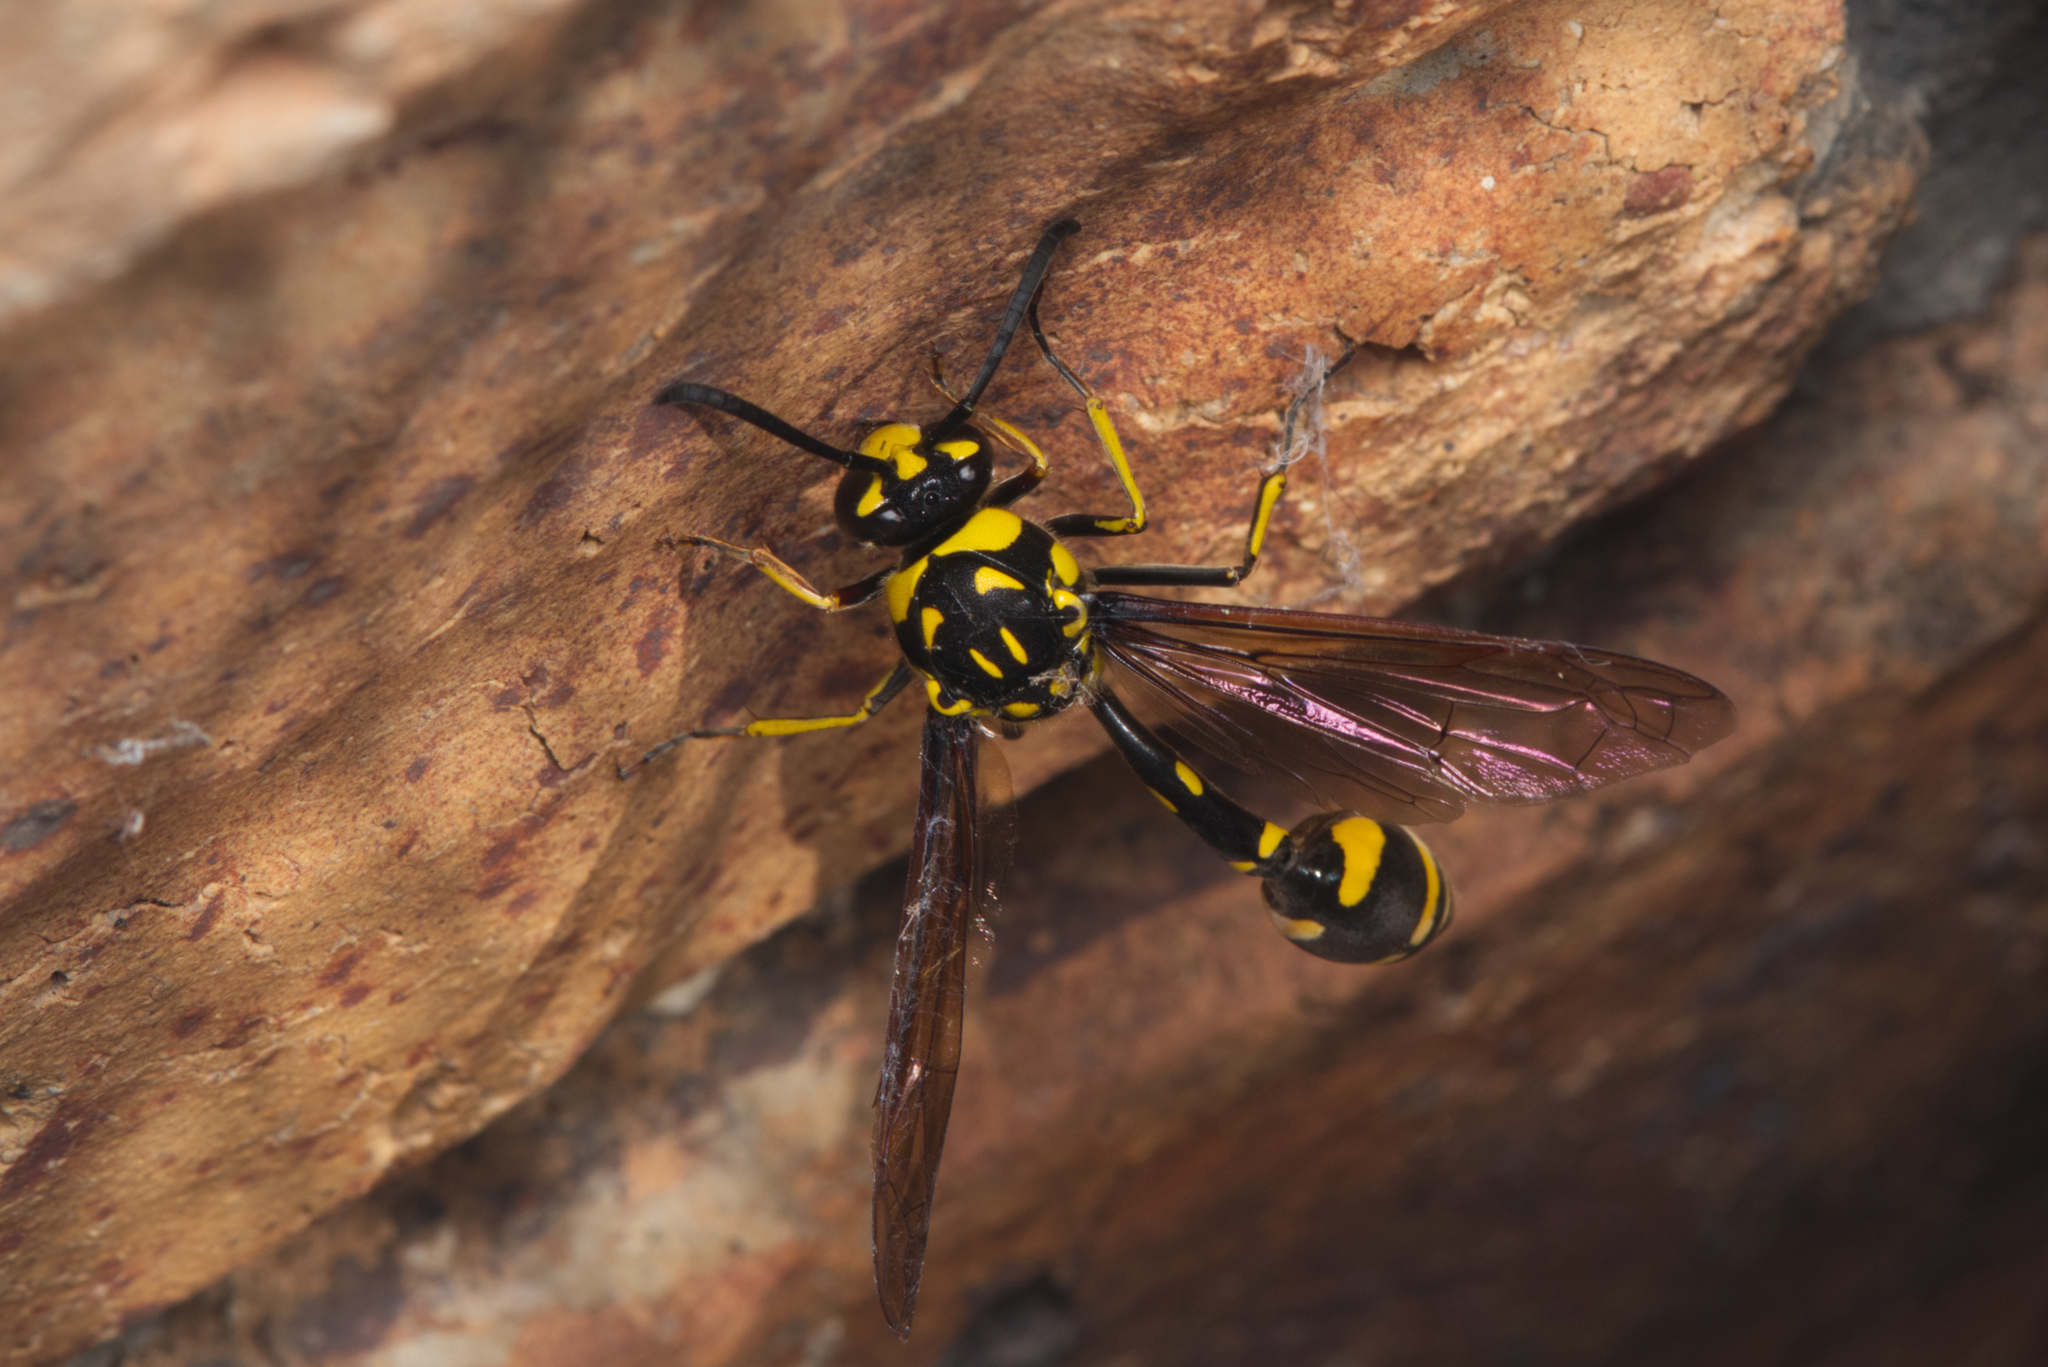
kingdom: Animalia
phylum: Arthropoda
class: Insecta
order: Hymenoptera
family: Eumenidae
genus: Phimenes
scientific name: Phimenes arcuatus
